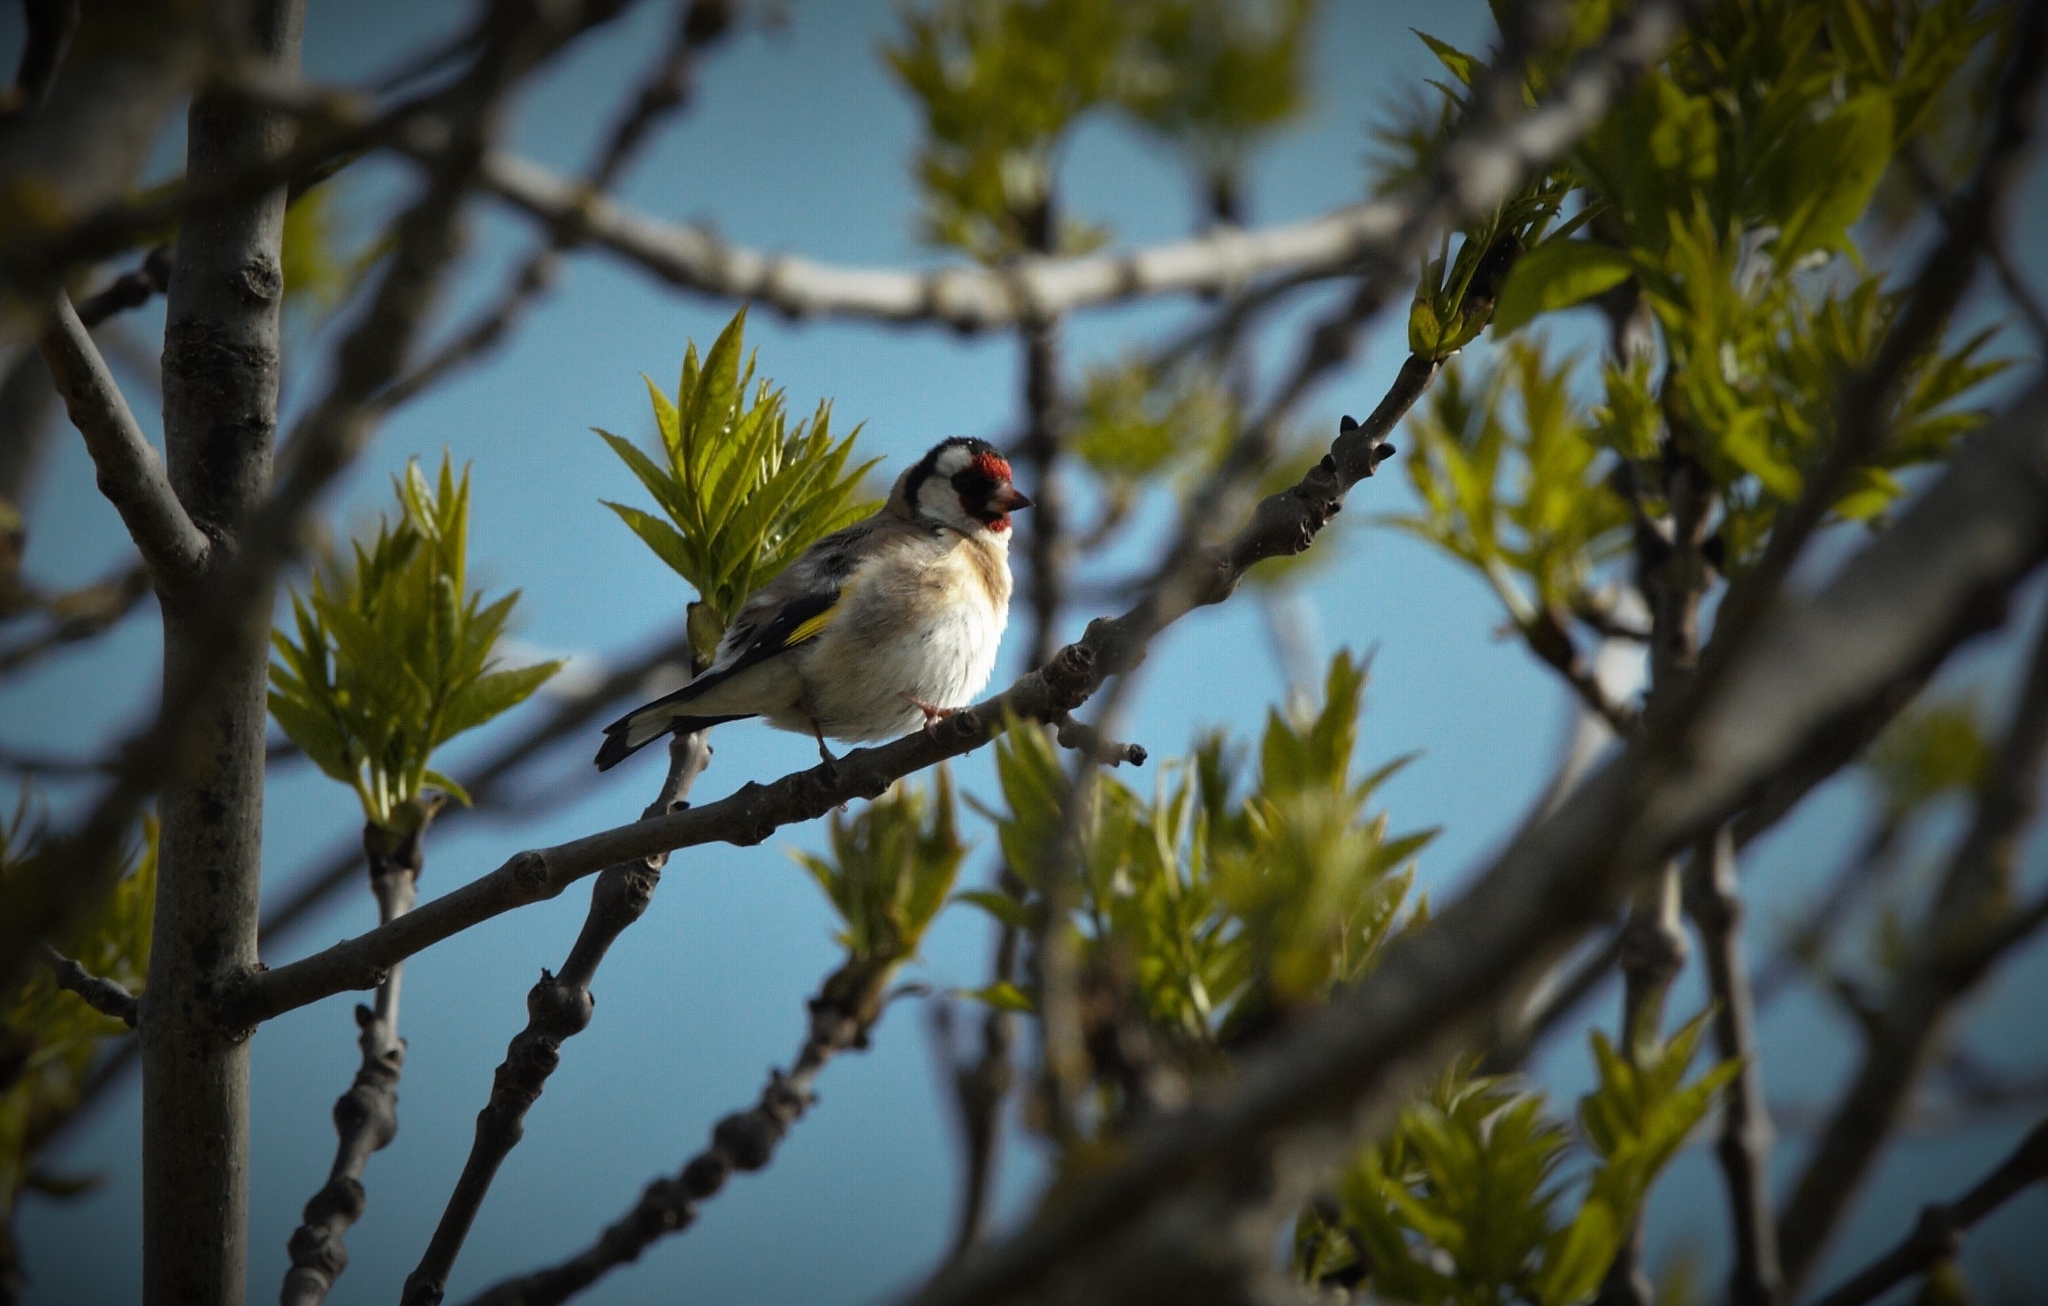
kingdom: Animalia
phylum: Chordata
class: Aves
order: Passeriformes
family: Fringillidae
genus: Carduelis
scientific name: Carduelis carduelis
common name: European goldfinch
